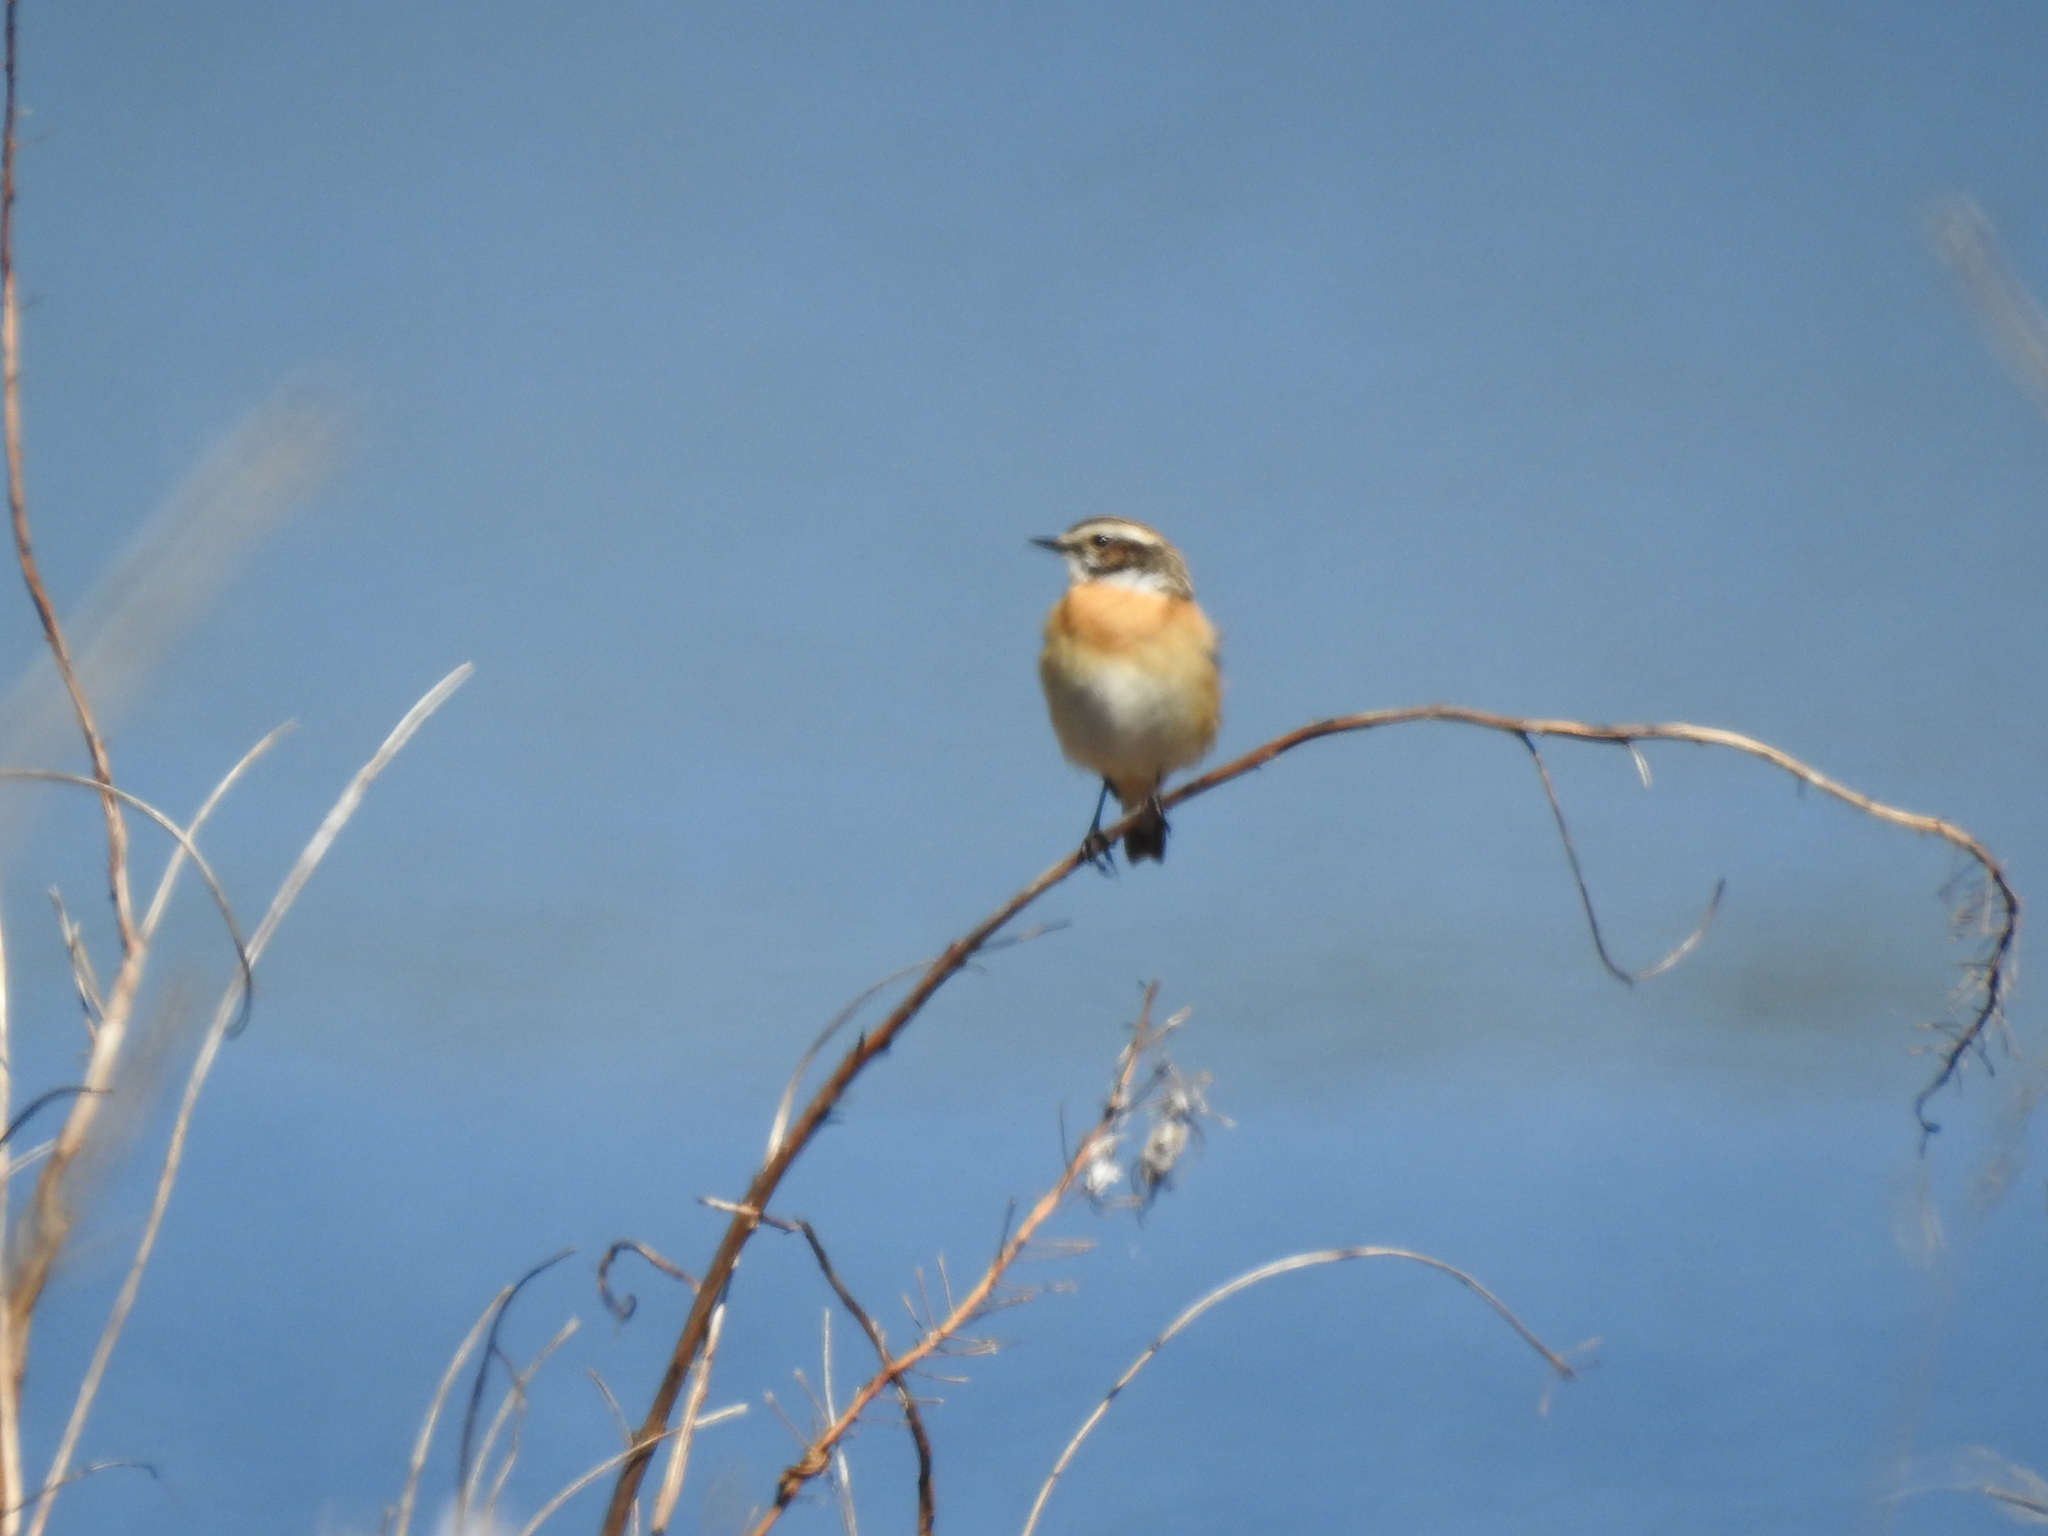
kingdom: Animalia
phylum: Chordata
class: Aves
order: Passeriformes
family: Muscicapidae
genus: Saxicola
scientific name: Saxicola rubetra
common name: Whinchat
